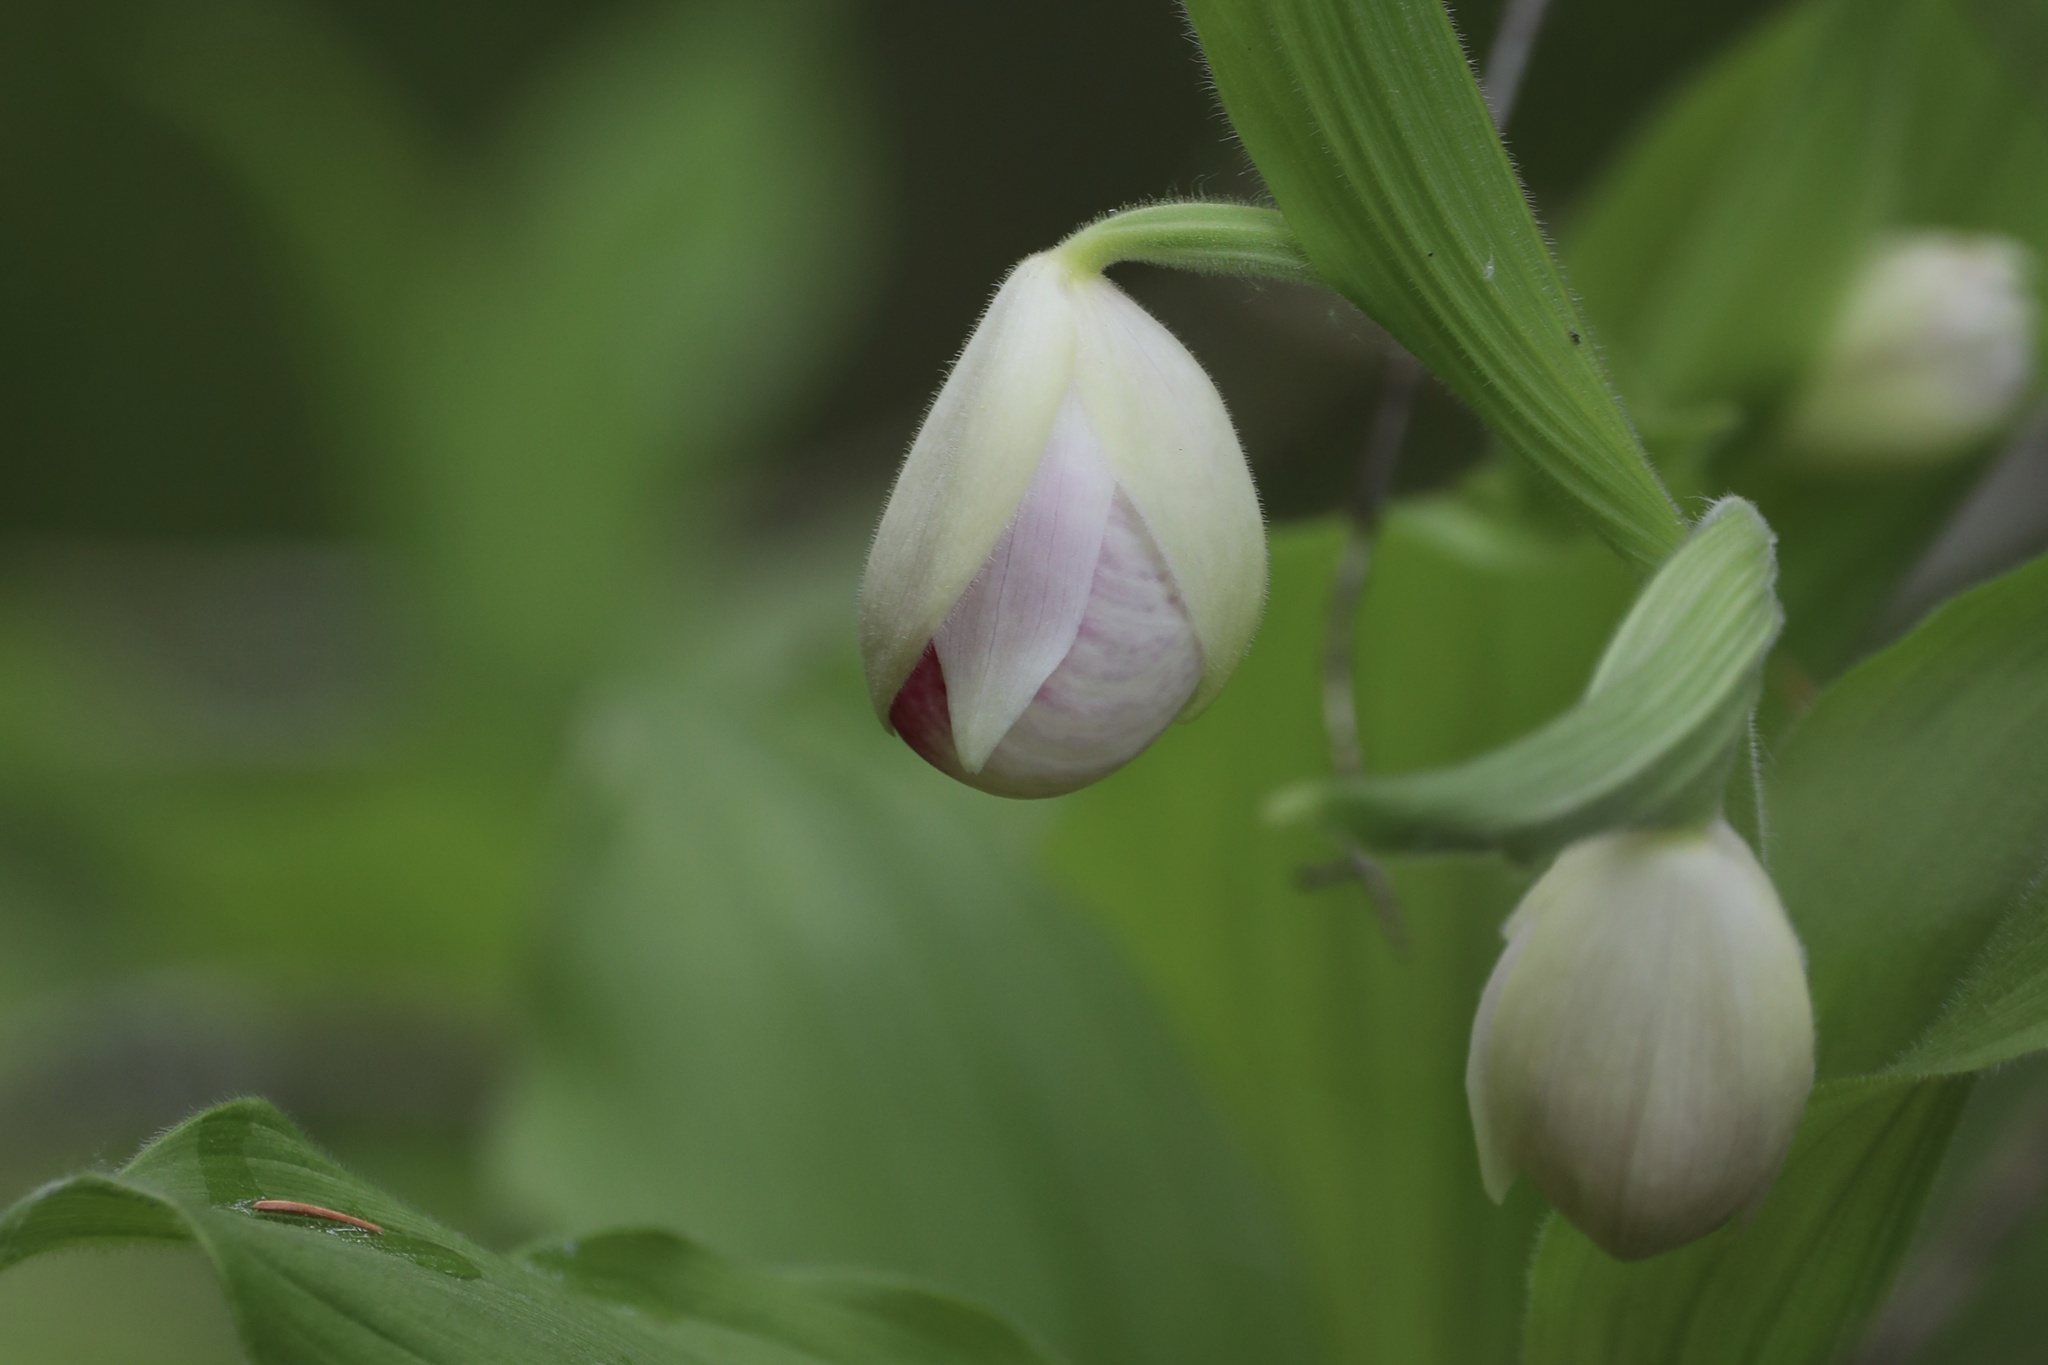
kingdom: Plantae
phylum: Tracheophyta
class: Liliopsida
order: Asparagales
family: Orchidaceae
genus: Cypripedium
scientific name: Cypripedium reginae
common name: Queen lady's-slipper
